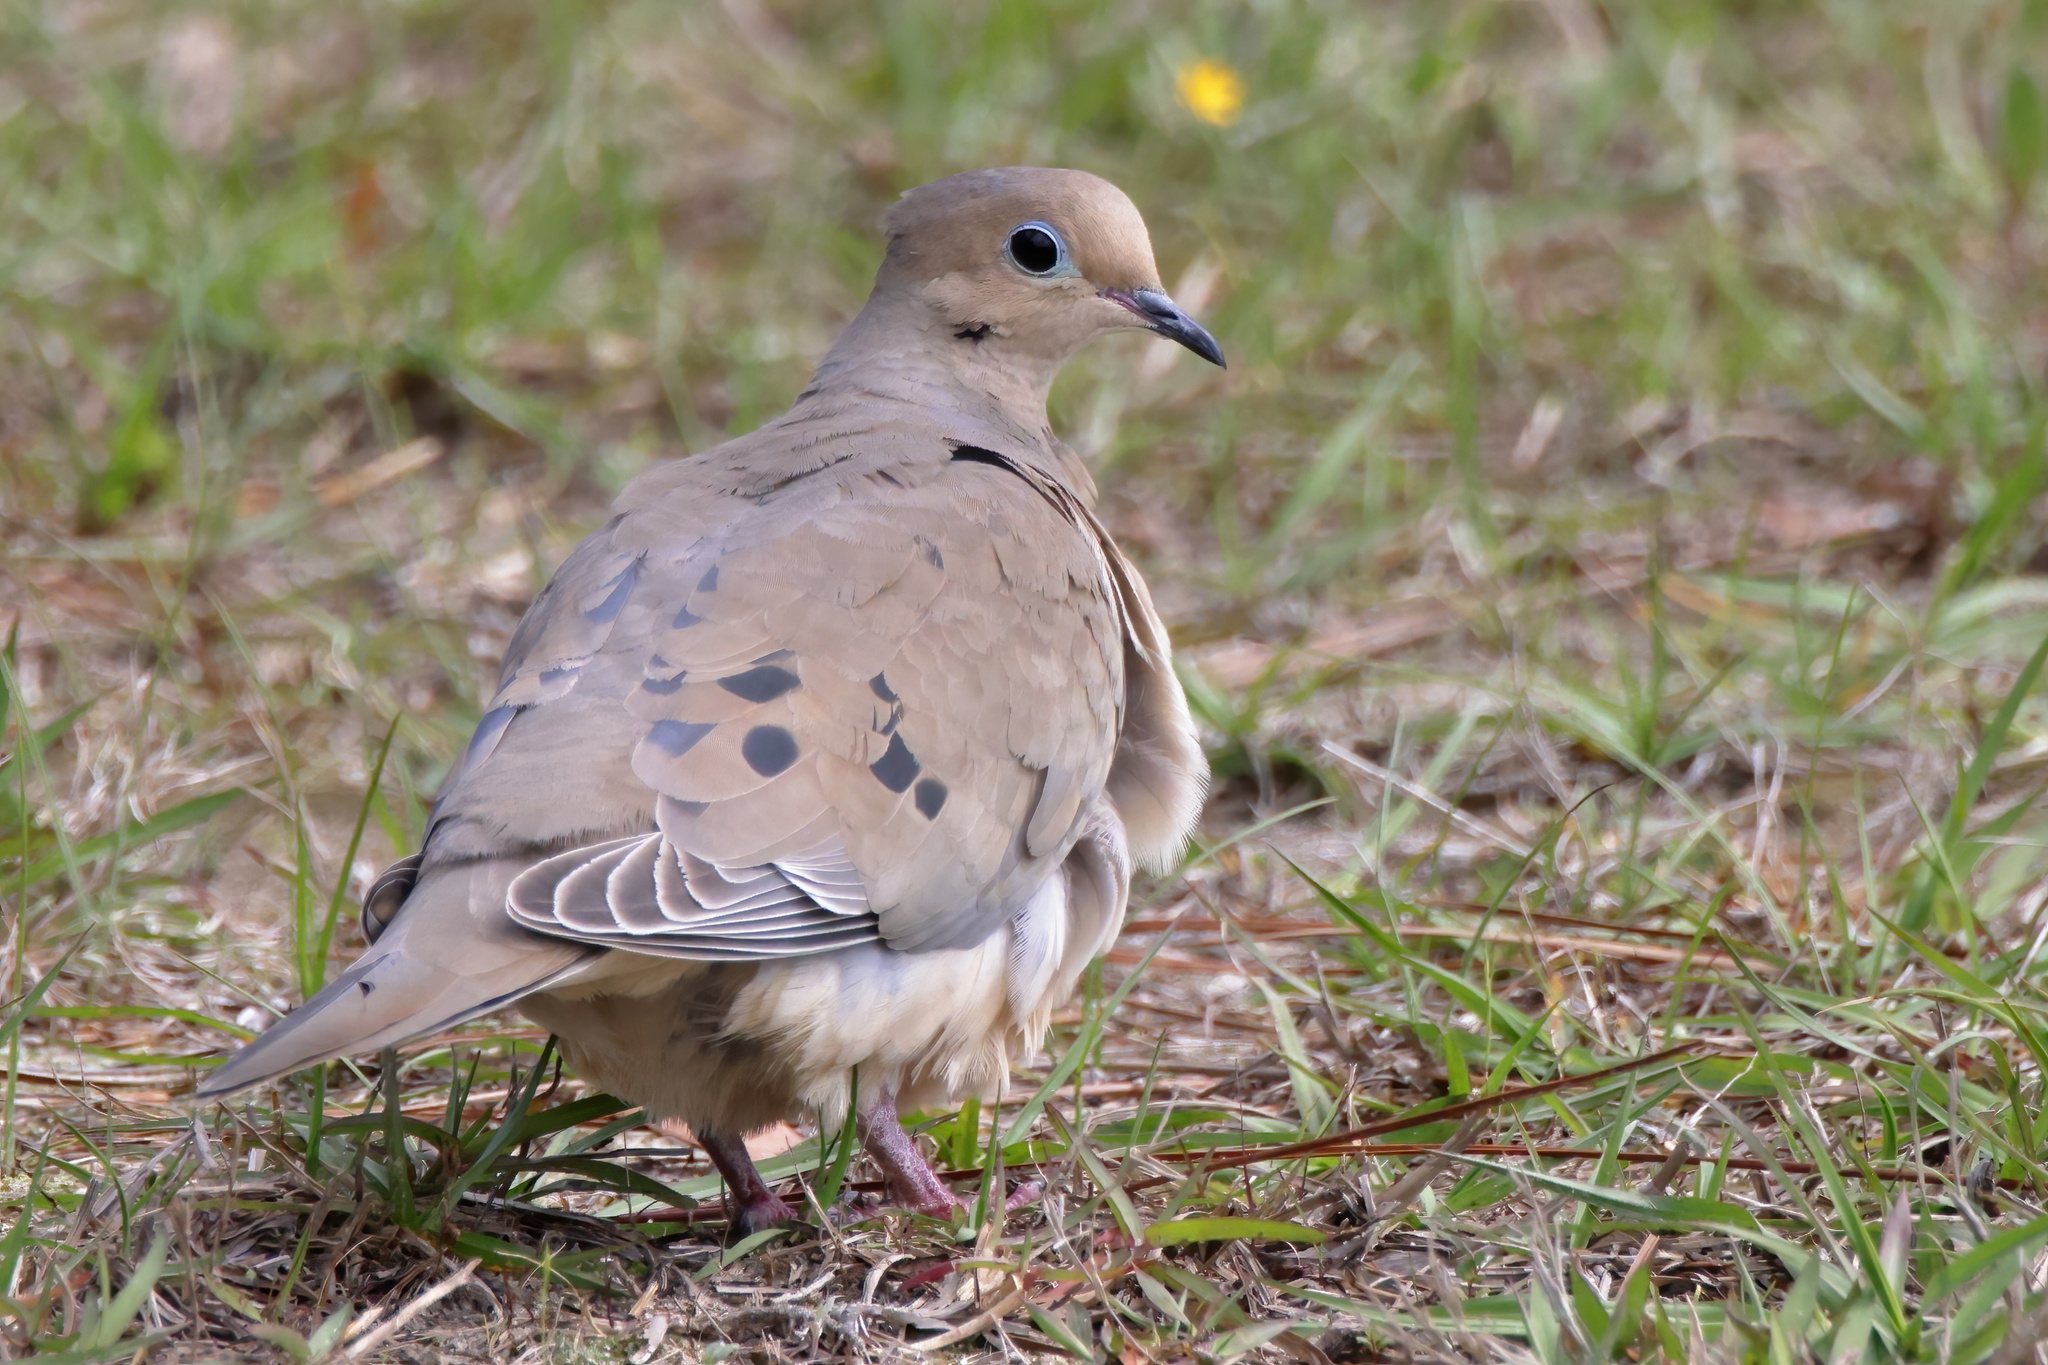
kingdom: Animalia
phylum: Chordata
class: Aves
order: Columbiformes
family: Columbidae
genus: Zenaida
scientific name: Zenaida macroura
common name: Mourning dove
